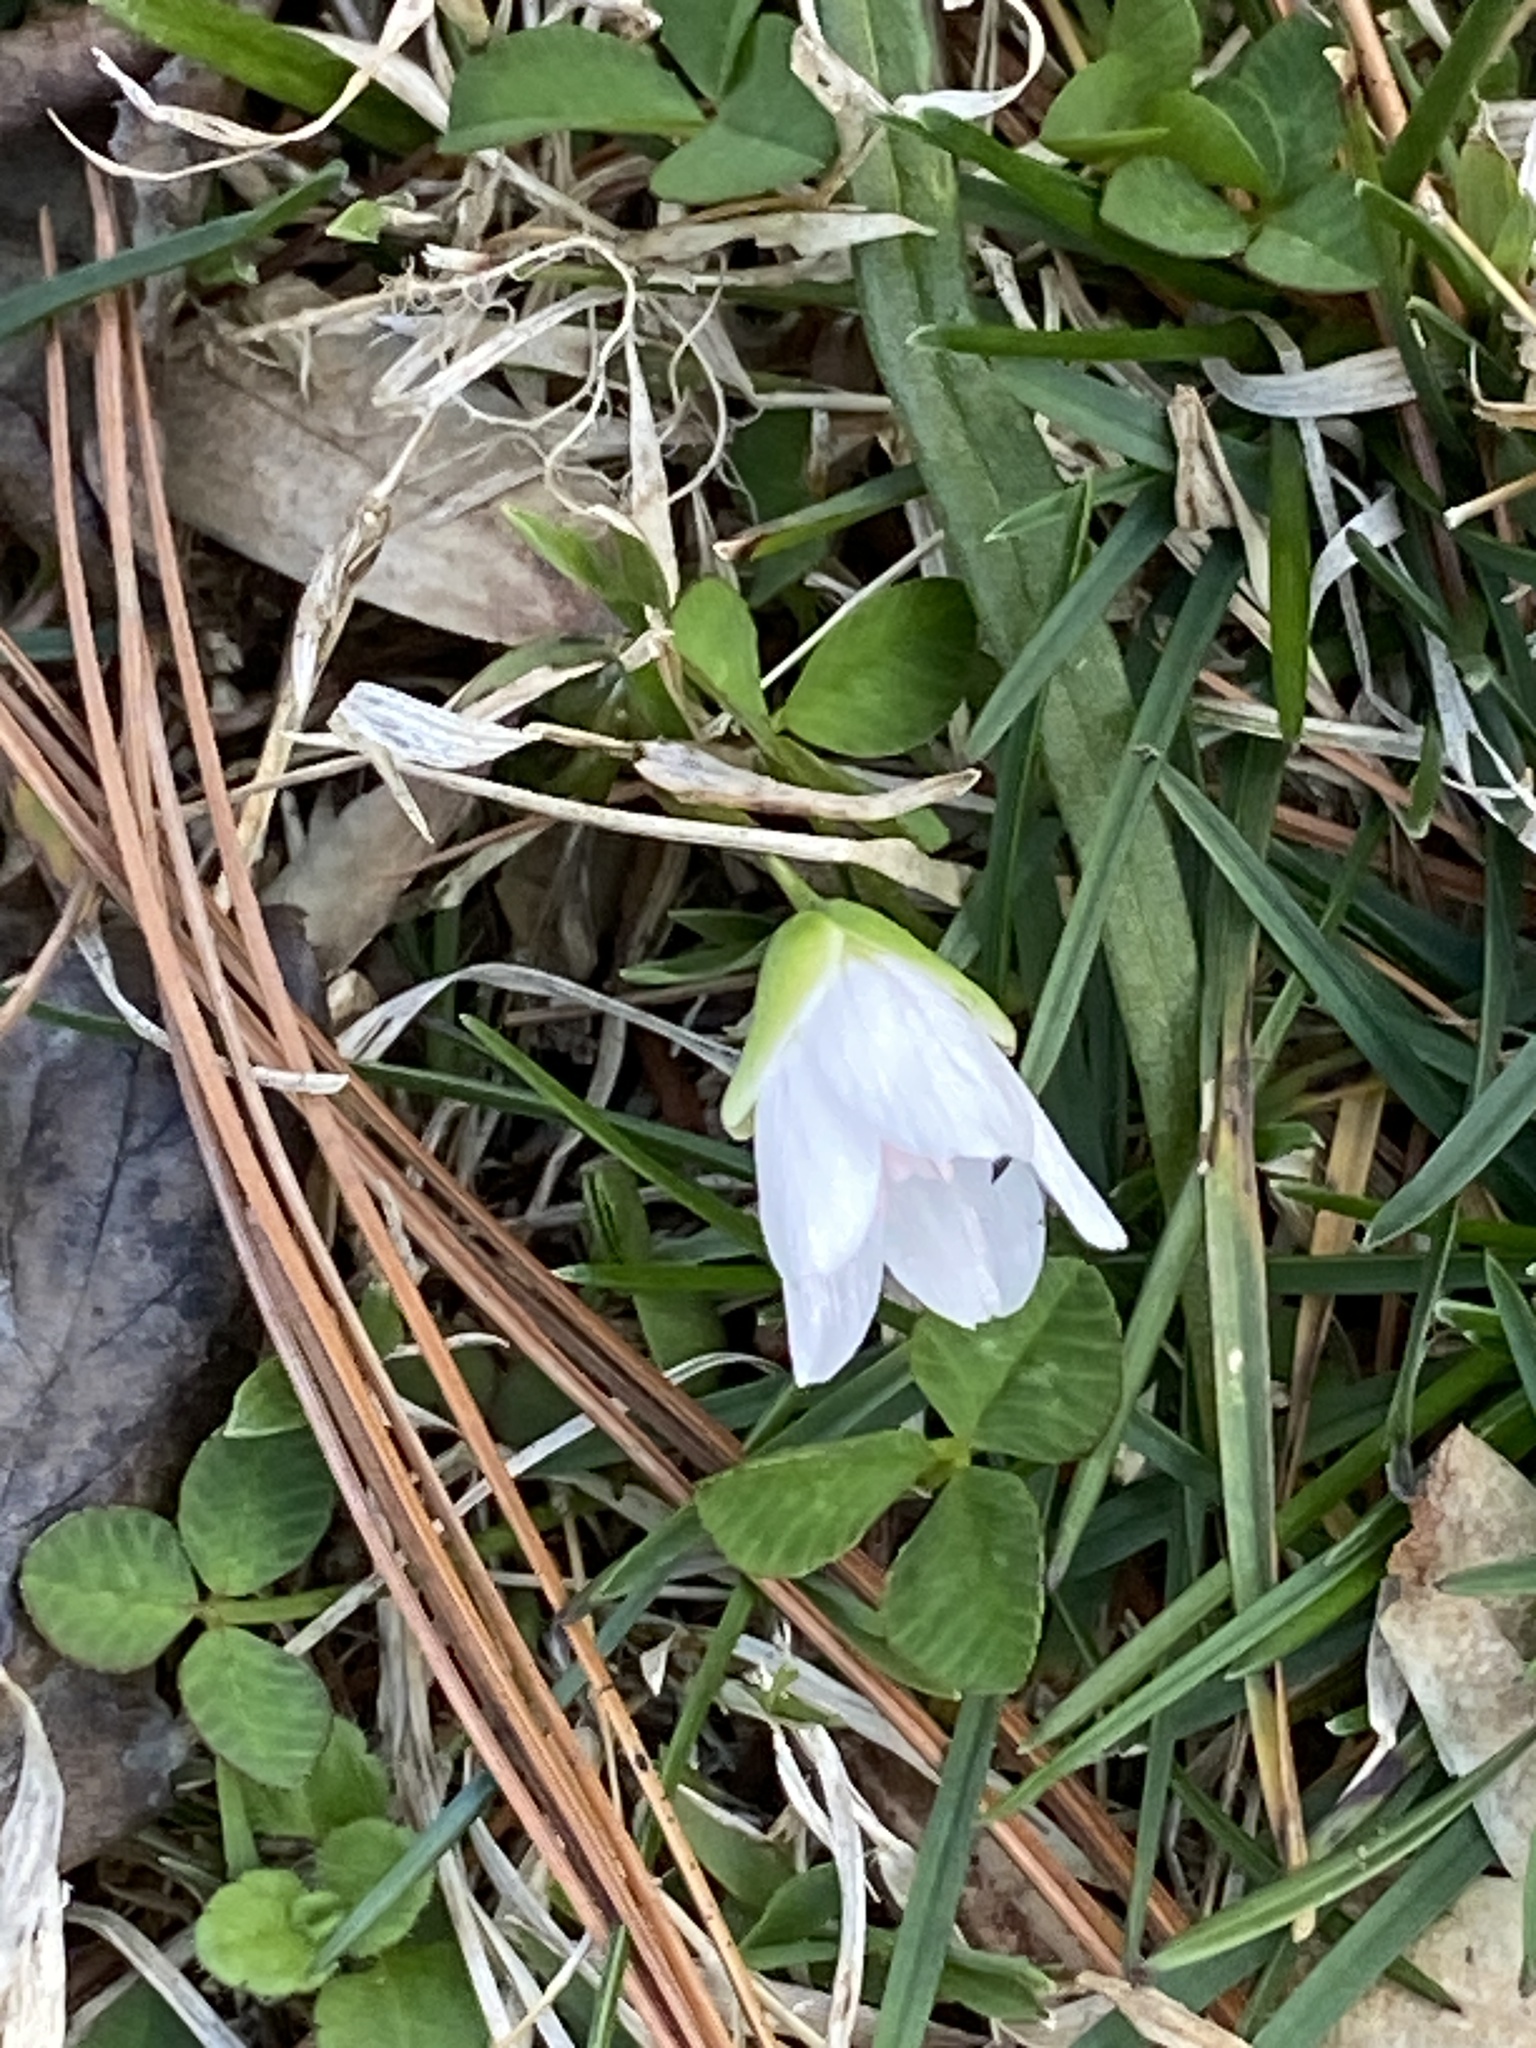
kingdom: Plantae
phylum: Tracheophyta
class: Magnoliopsida
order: Caryophyllales
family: Montiaceae
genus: Claytonia
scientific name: Claytonia virginica
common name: Virginia springbeauty
